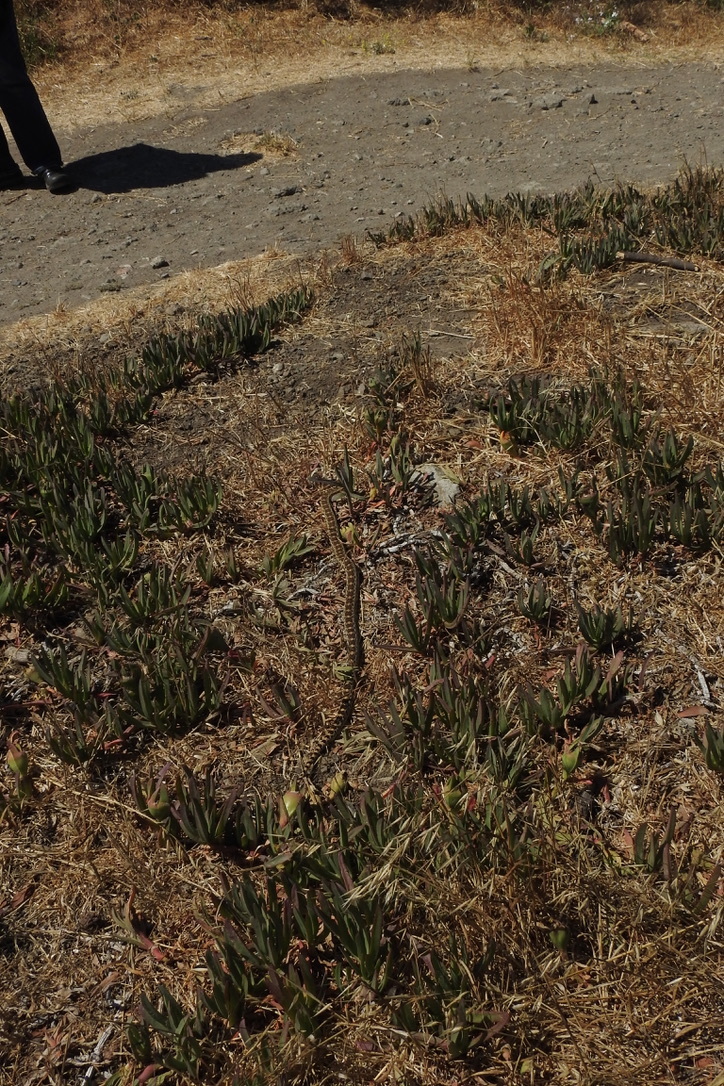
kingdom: Animalia
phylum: Chordata
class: Squamata
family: Colubridae
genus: Pituophis
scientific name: Pituophis catenifer
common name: Gopher snake
